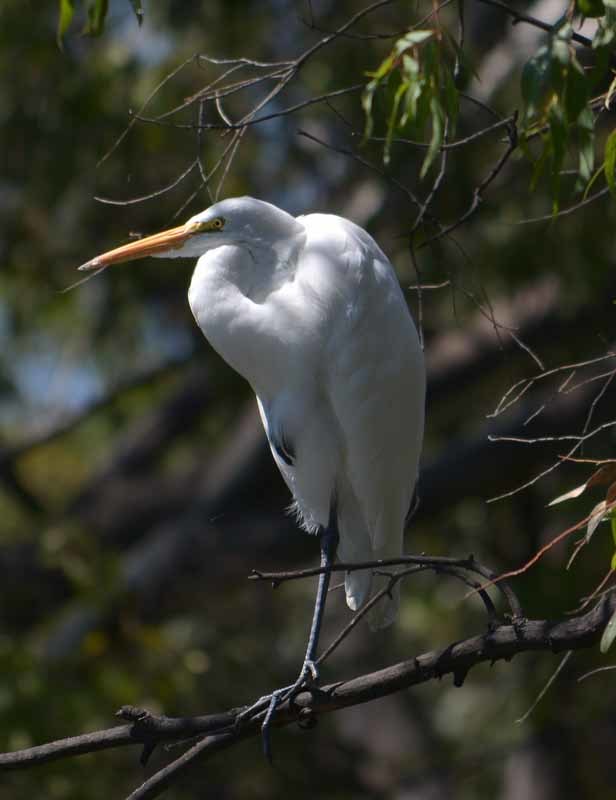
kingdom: Animalia
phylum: Chordata
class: Aves
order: Pelecaniformes
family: Ardeidae
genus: Ardea
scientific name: Ardea alba
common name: Great egret
